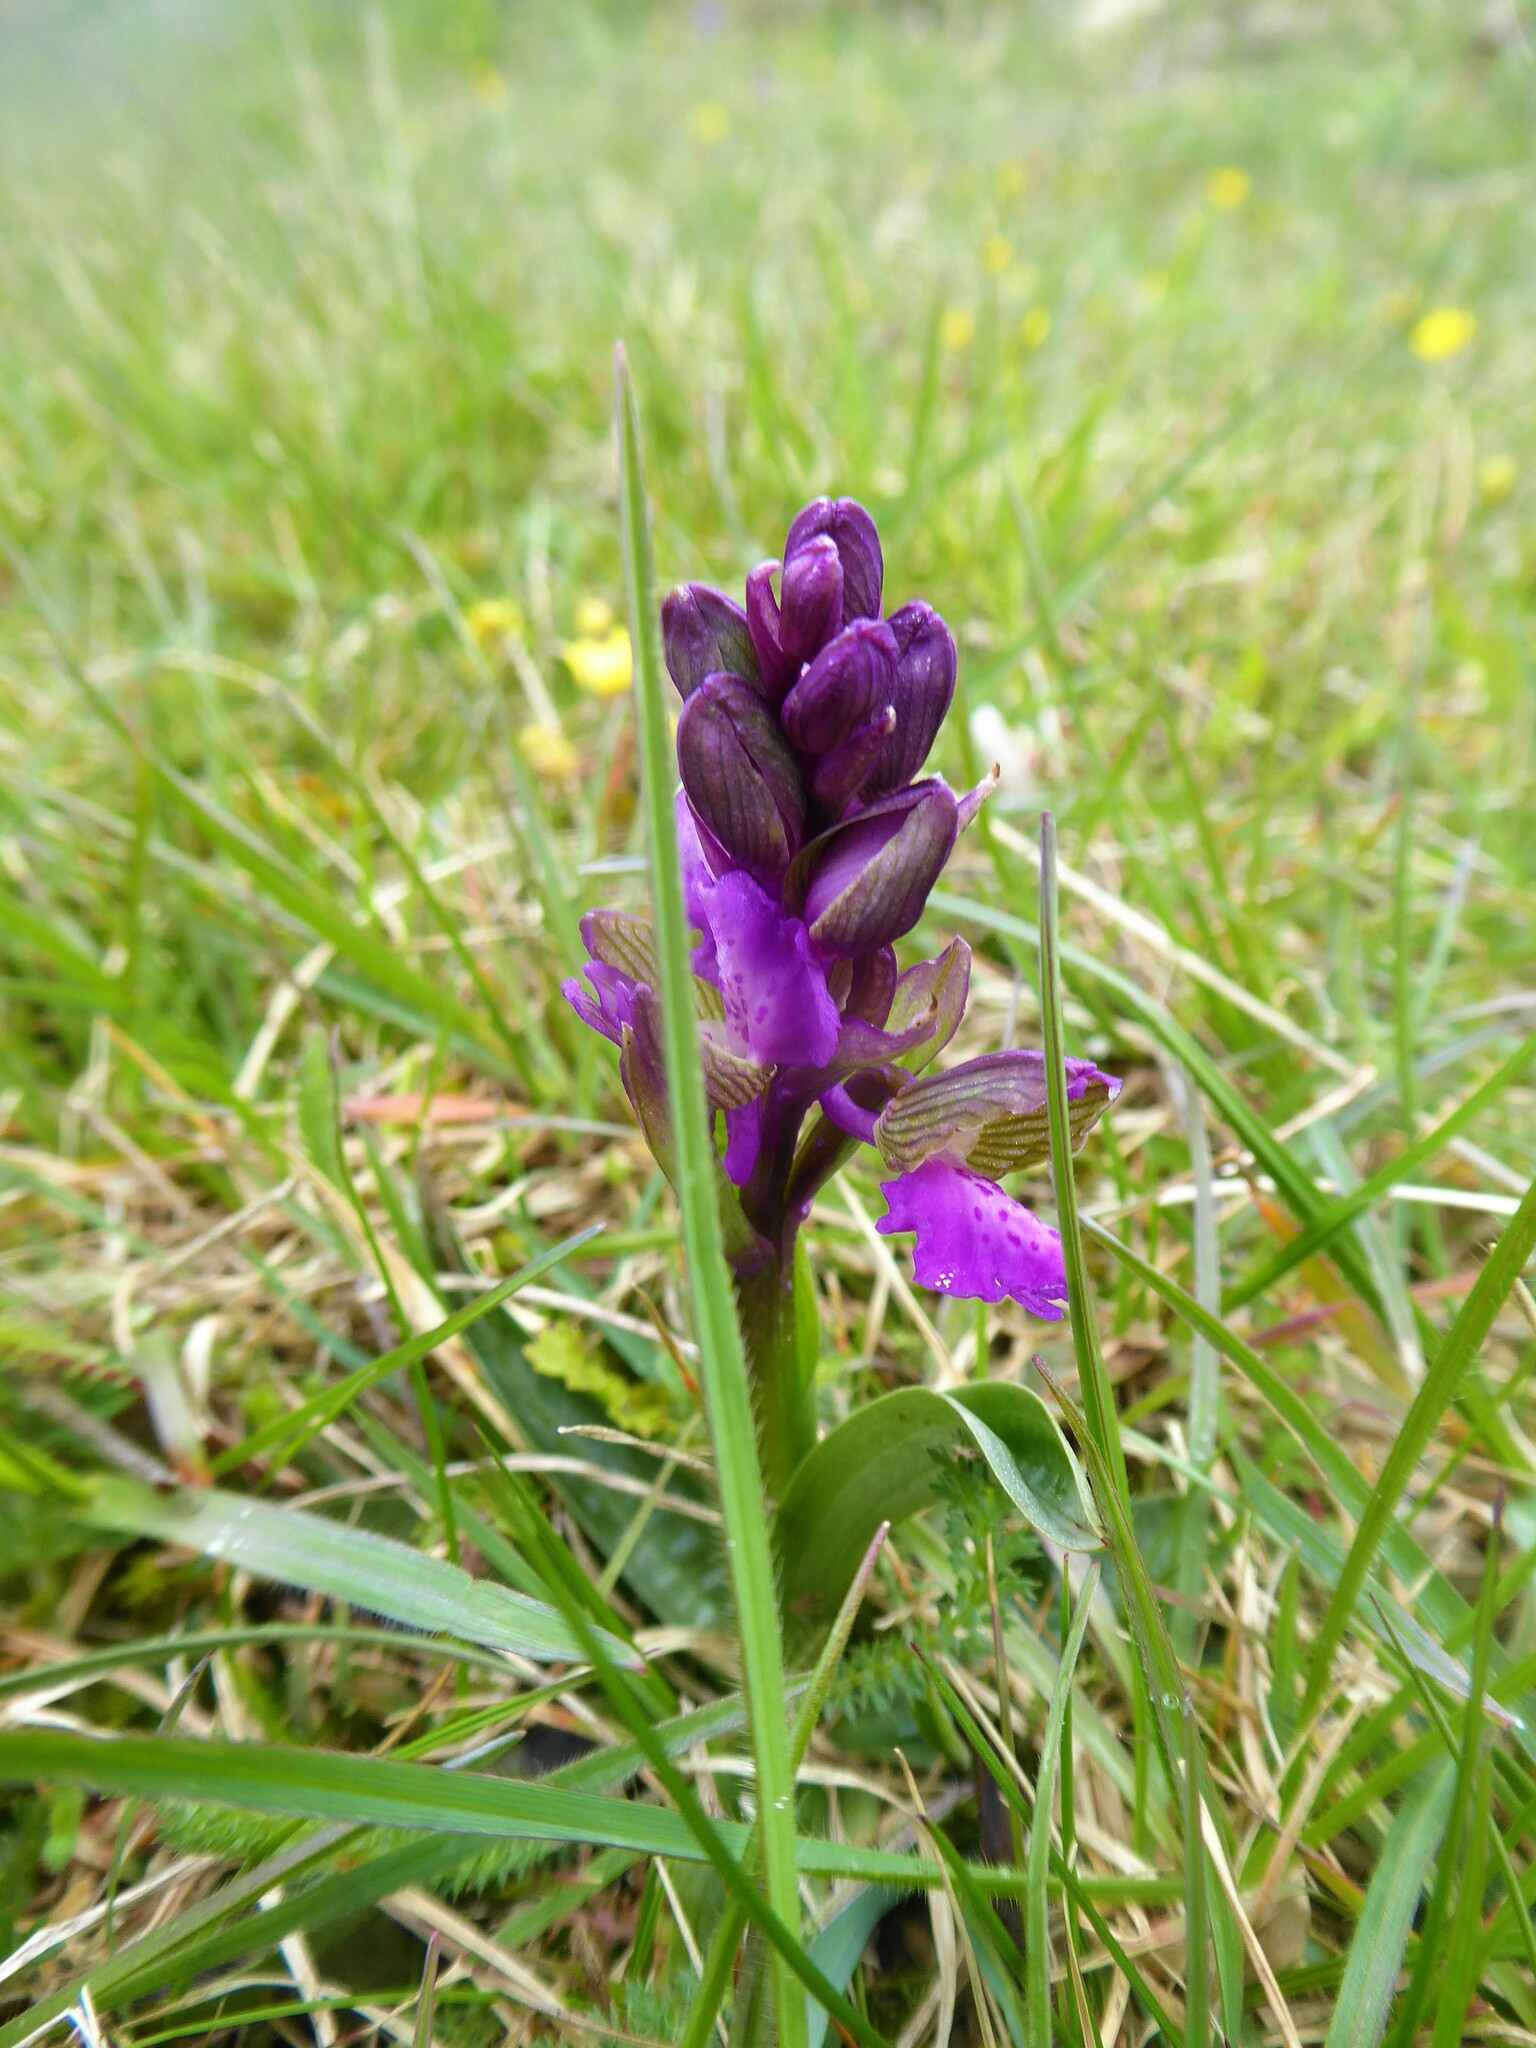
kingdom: Plantae
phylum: Tracheophyta
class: Liliopsida
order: Asparagales
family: Orchidaceae
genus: Anacamptis
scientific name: Anacamptis morio
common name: Green-winged orchid
